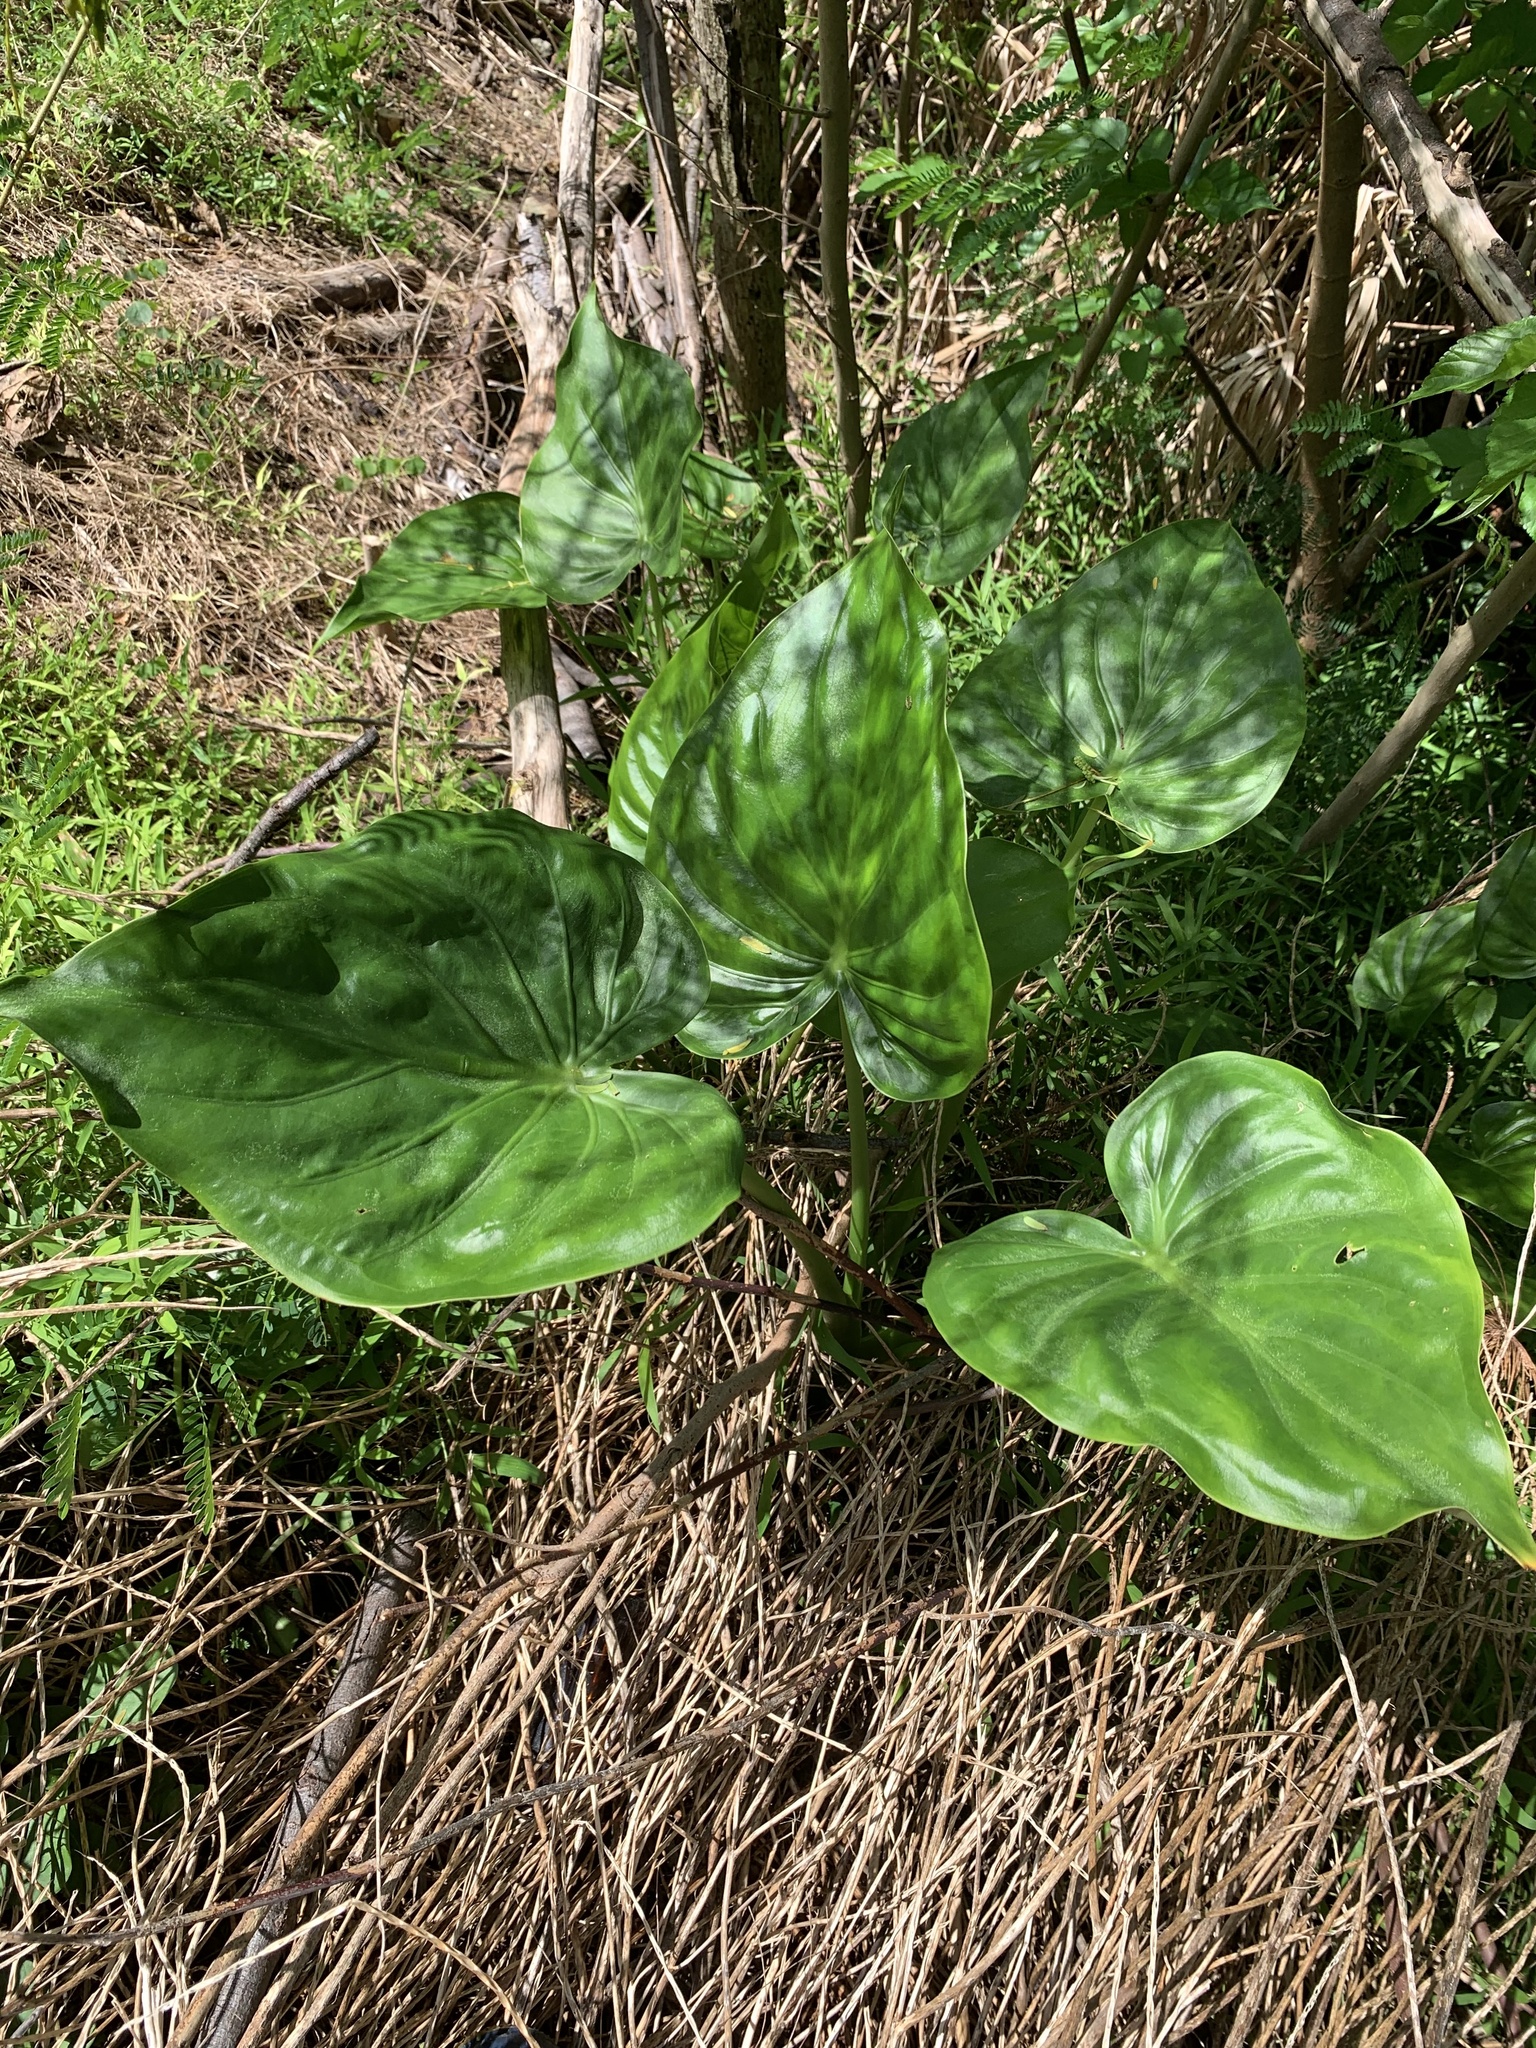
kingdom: Plantae
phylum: Tracheophyta
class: Liliopsida
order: Alismatales
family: Araceae
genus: Alocasia
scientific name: Alocasia cucullata
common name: Buddha's hand
